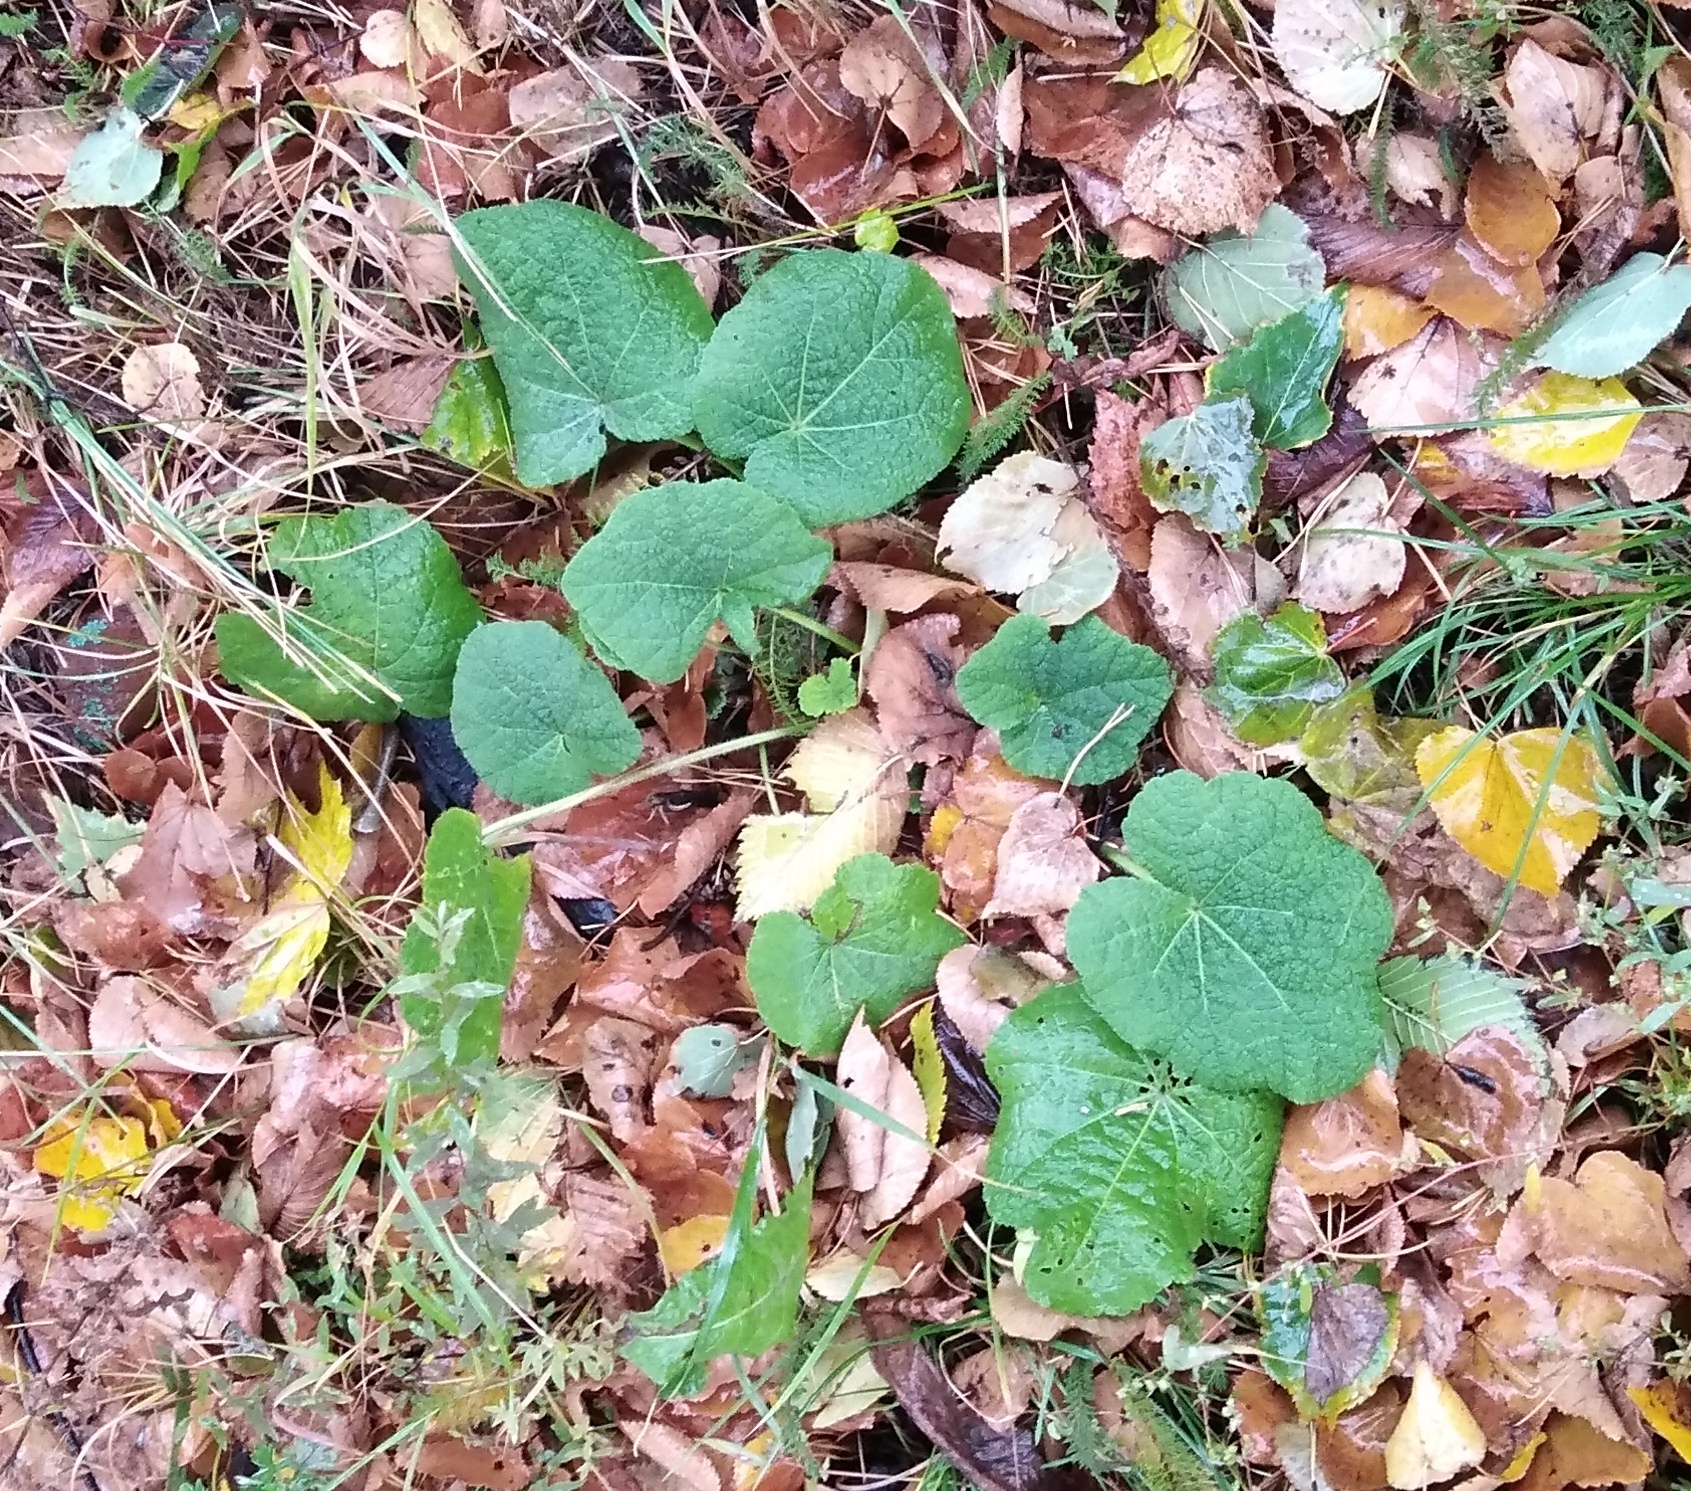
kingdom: Plantae
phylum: Tracheophyta
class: Magnoliopsida
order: Malvales
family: Malvaceae
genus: Alcea
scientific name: Alcea rosea
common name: Hollyhock
